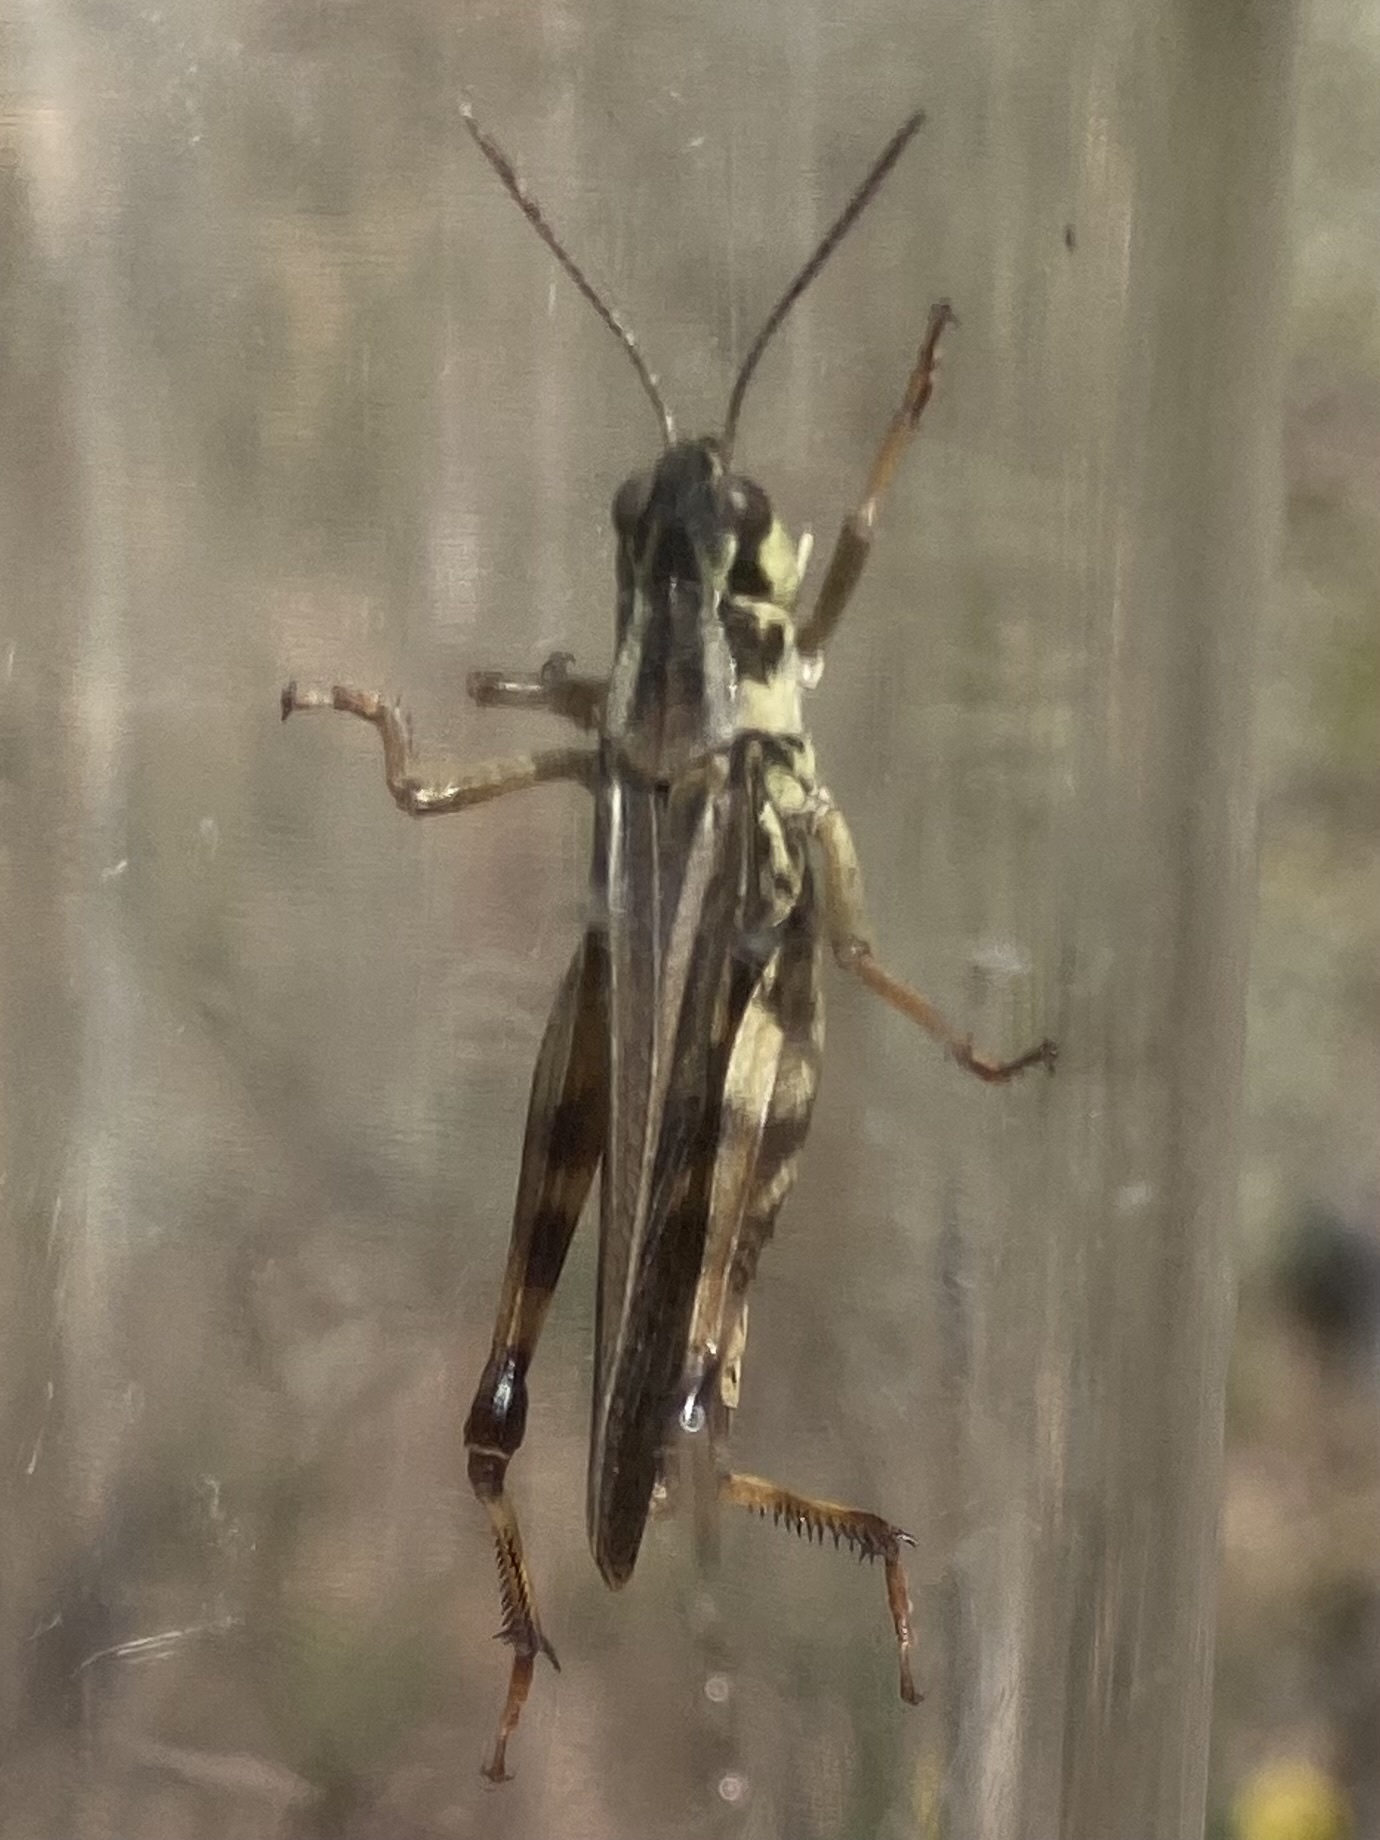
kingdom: Animalia
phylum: Arthropoda
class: Insecta
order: Orthoptera
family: Acrididae
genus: Camnula
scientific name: Camnula pellucida
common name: Clear-winged grasshopper
